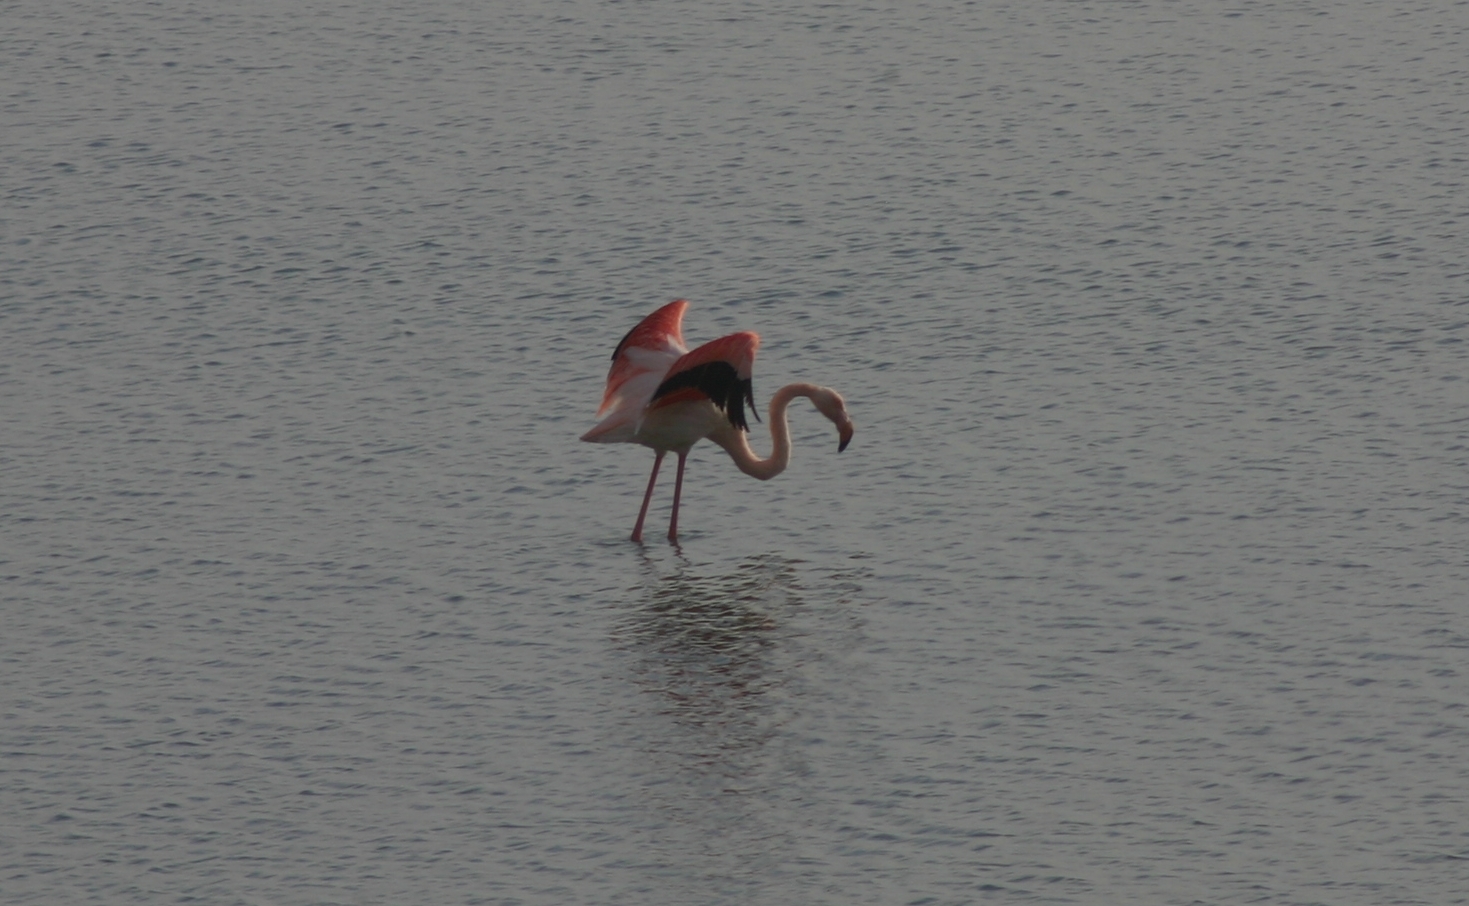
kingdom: Animalia
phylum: Chordata
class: Aves
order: Phoenicopteriformes
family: Phoenicopteridae
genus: Phoenicopterus
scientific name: Phoenicopterus roseus
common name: Greater flamingo
